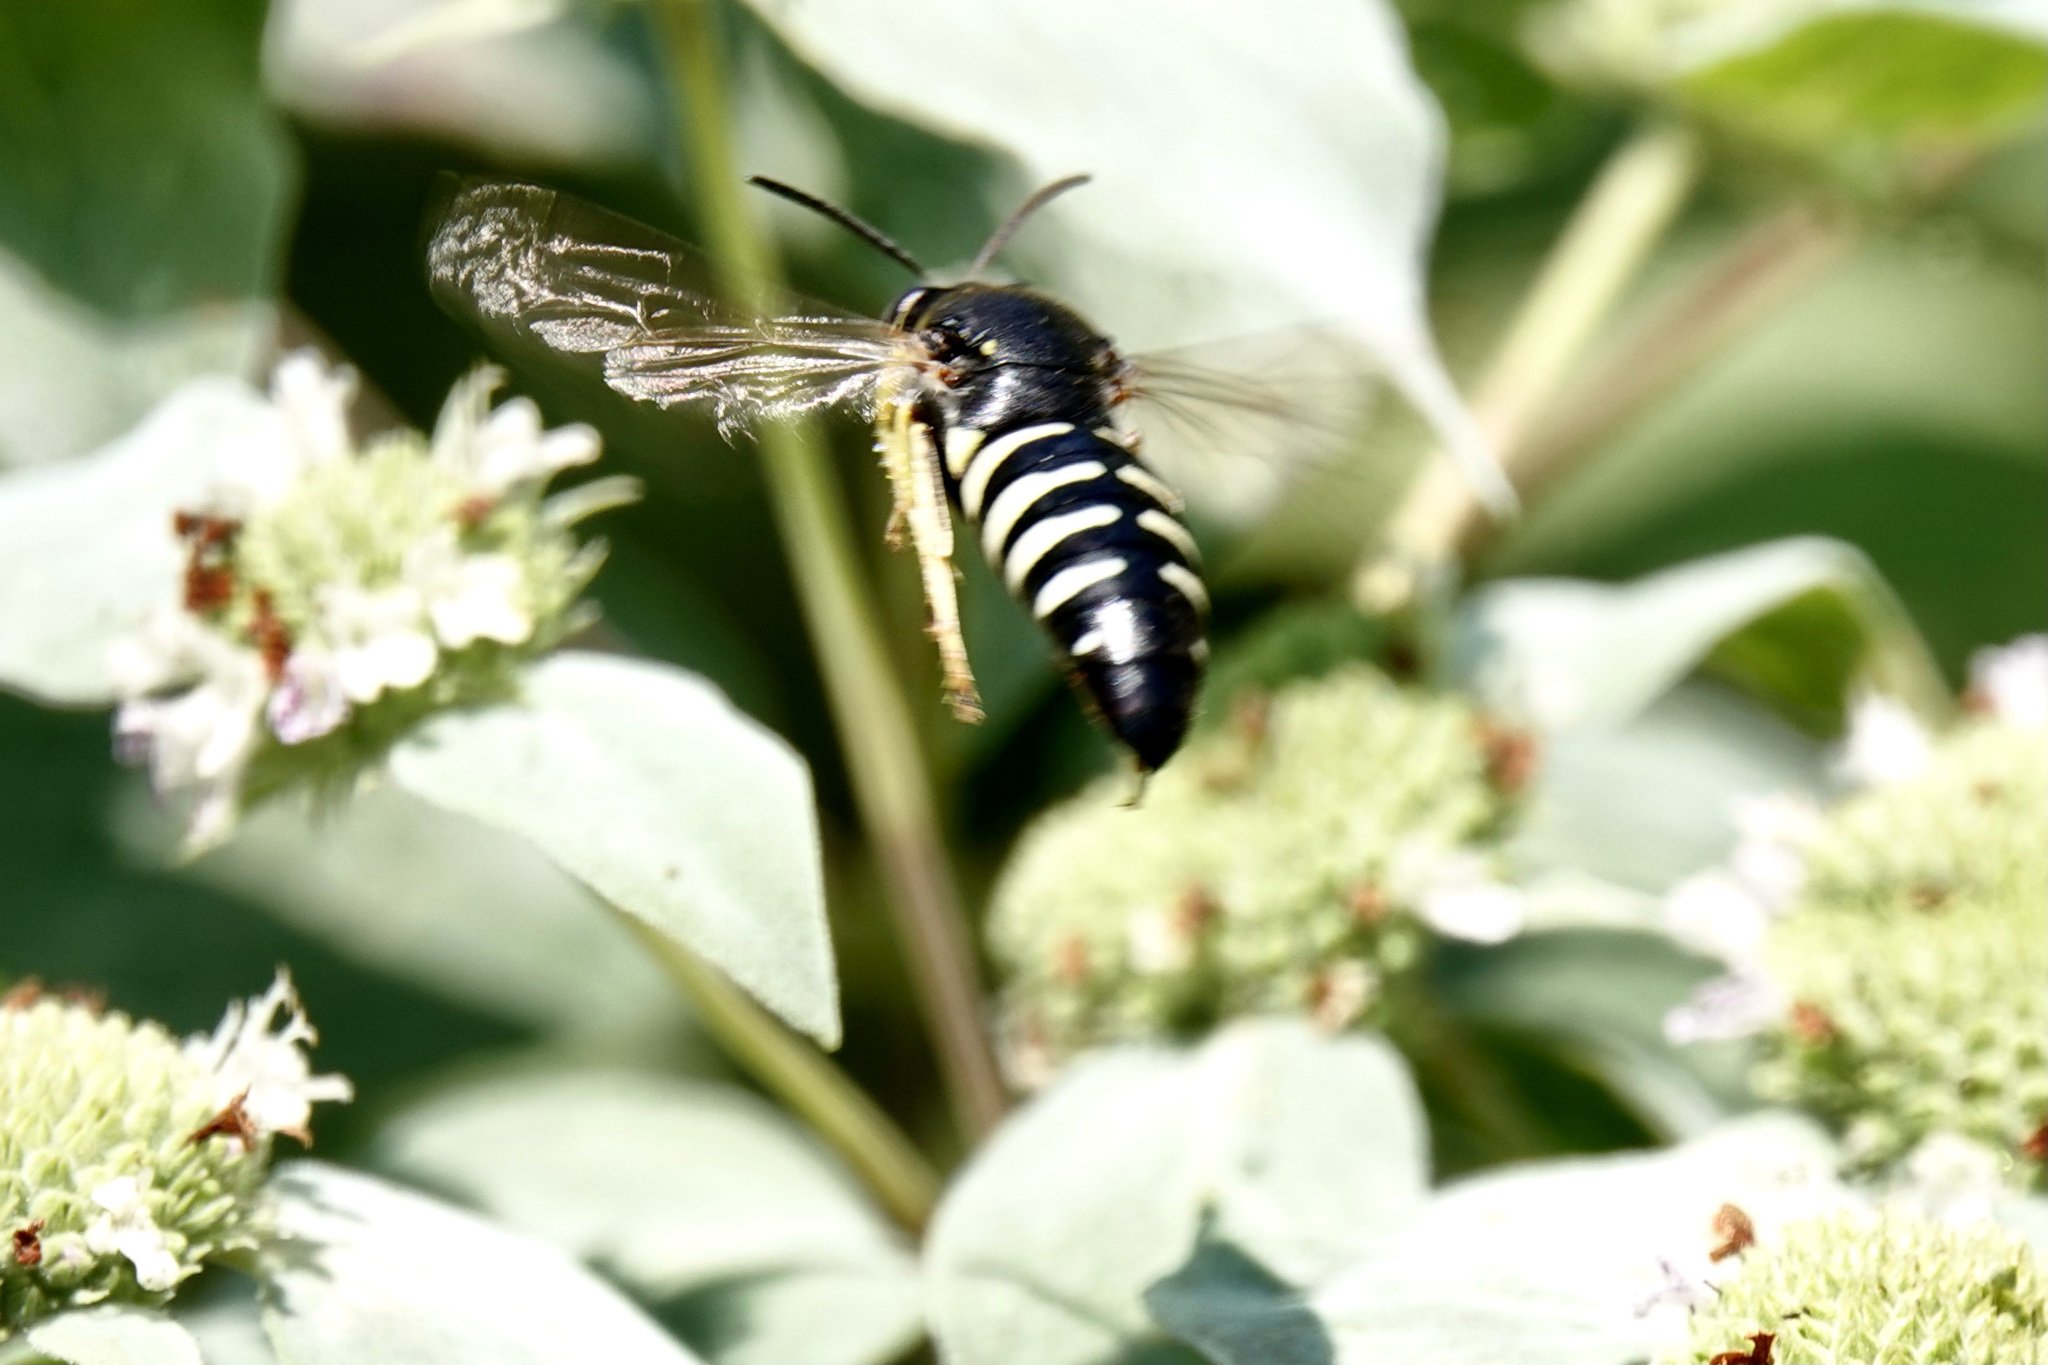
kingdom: Animalia
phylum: Arthropoda
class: Insecta
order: Hymenoptera
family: Crabronidae
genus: Bicyrtes
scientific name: Bicyrtes quadrifasciatus
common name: Four-banded stink bug hunter wasp
